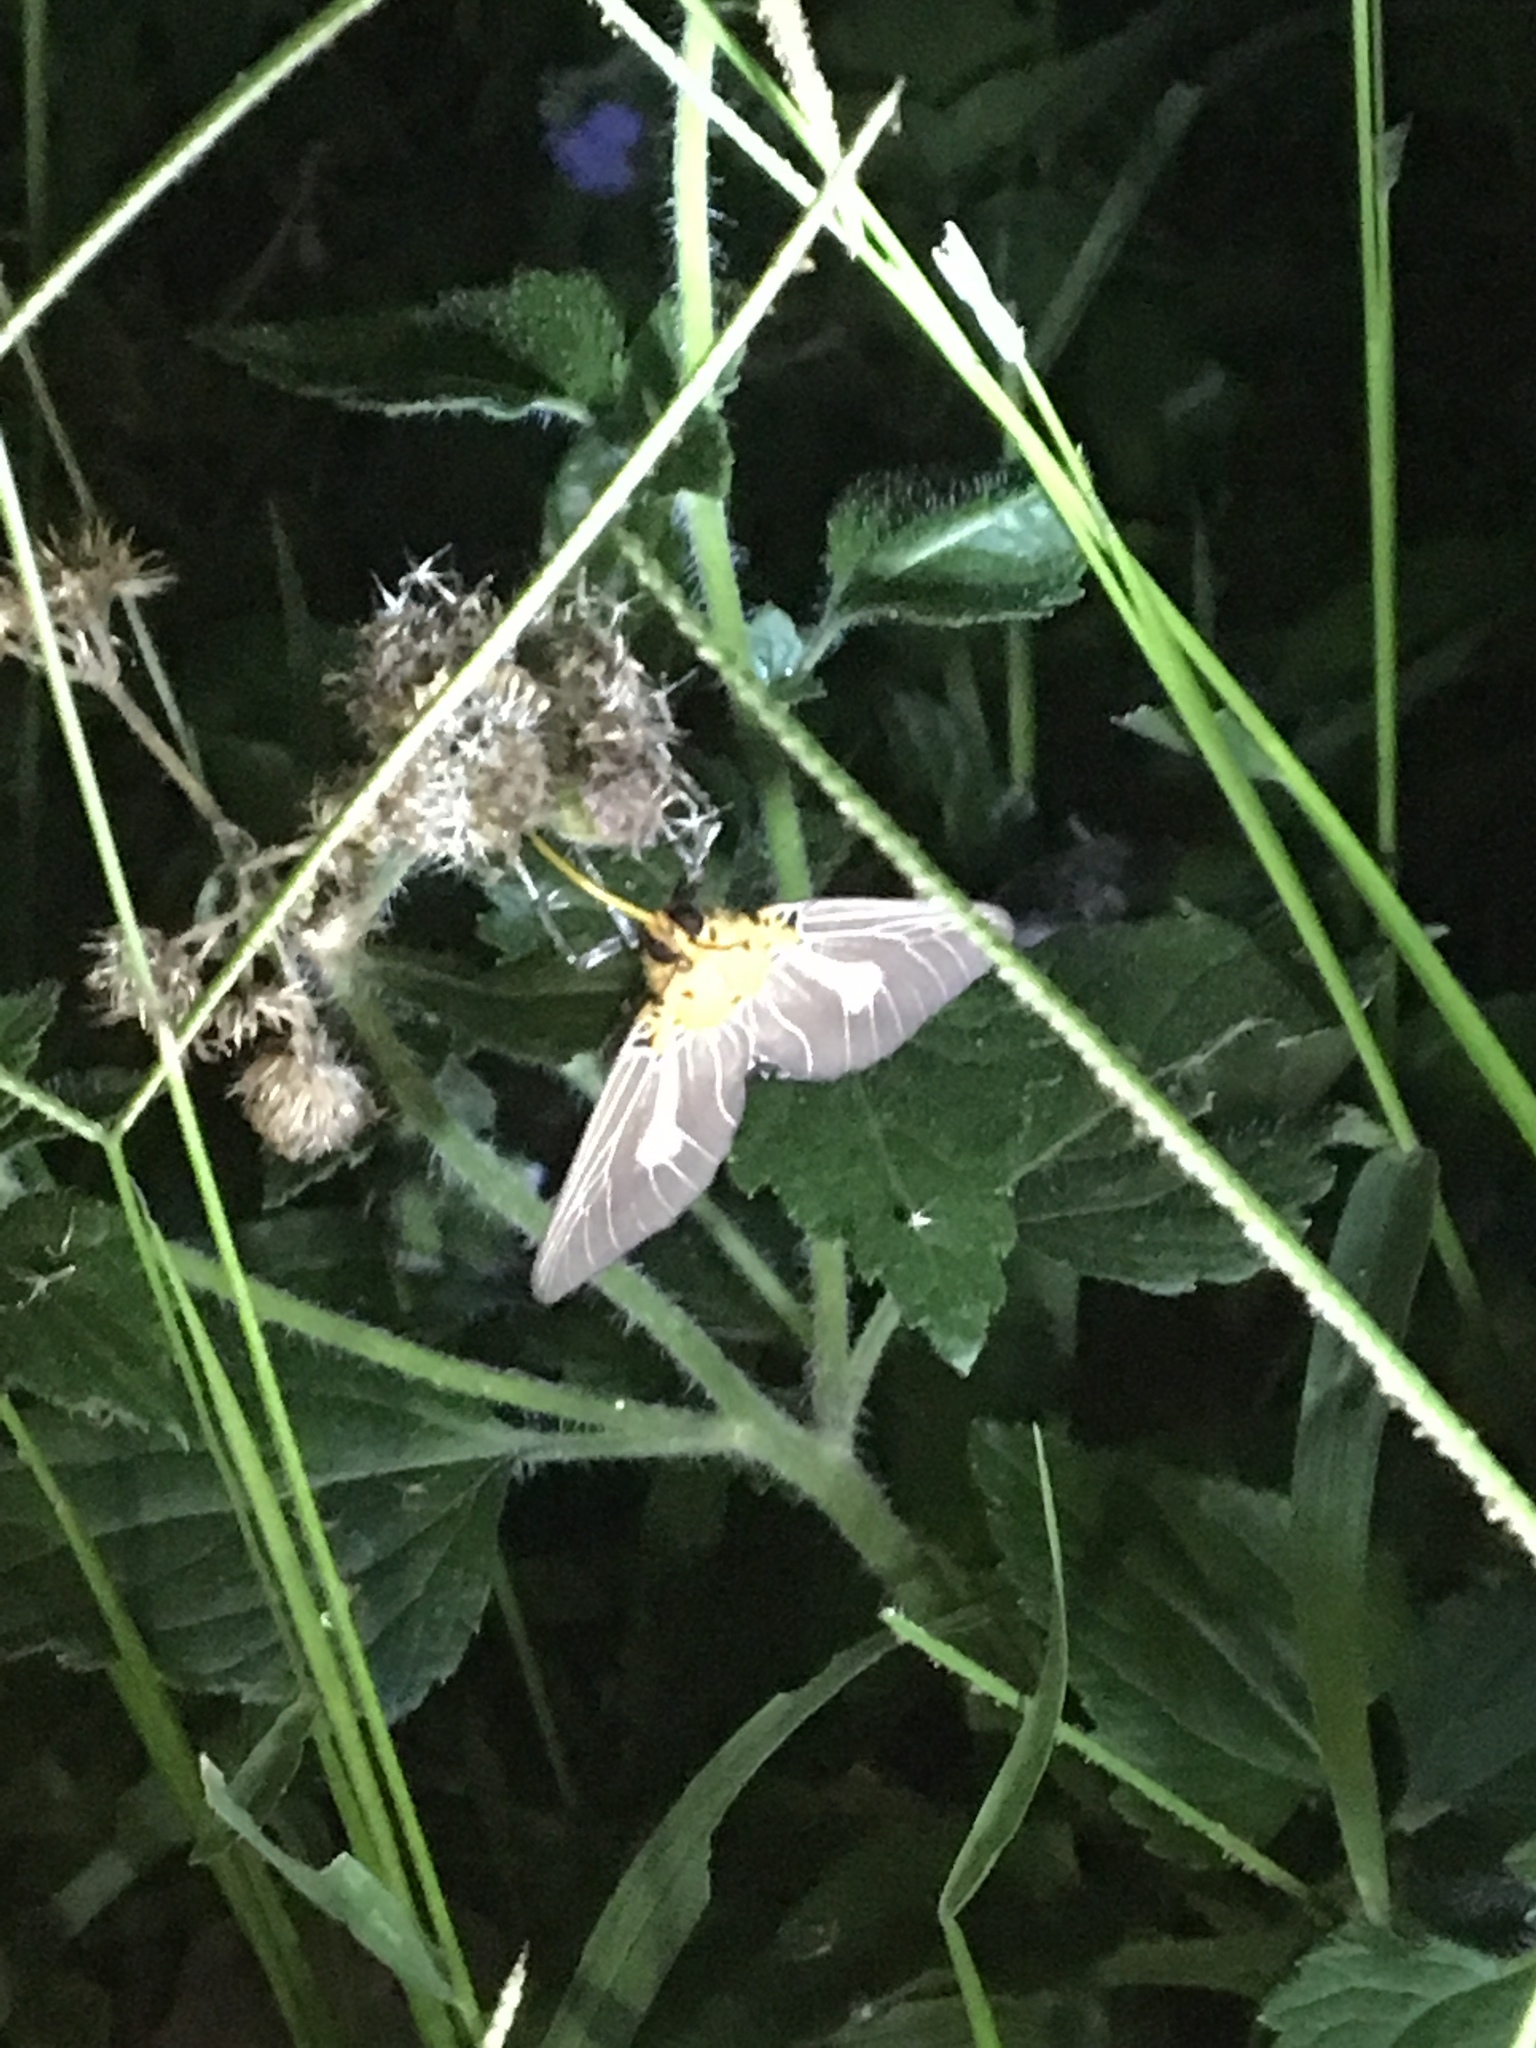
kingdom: Animalia
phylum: Arthropoda
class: Insecta
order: Lepidoptera
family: Erebidae
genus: Asota
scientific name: Asota heliconia
